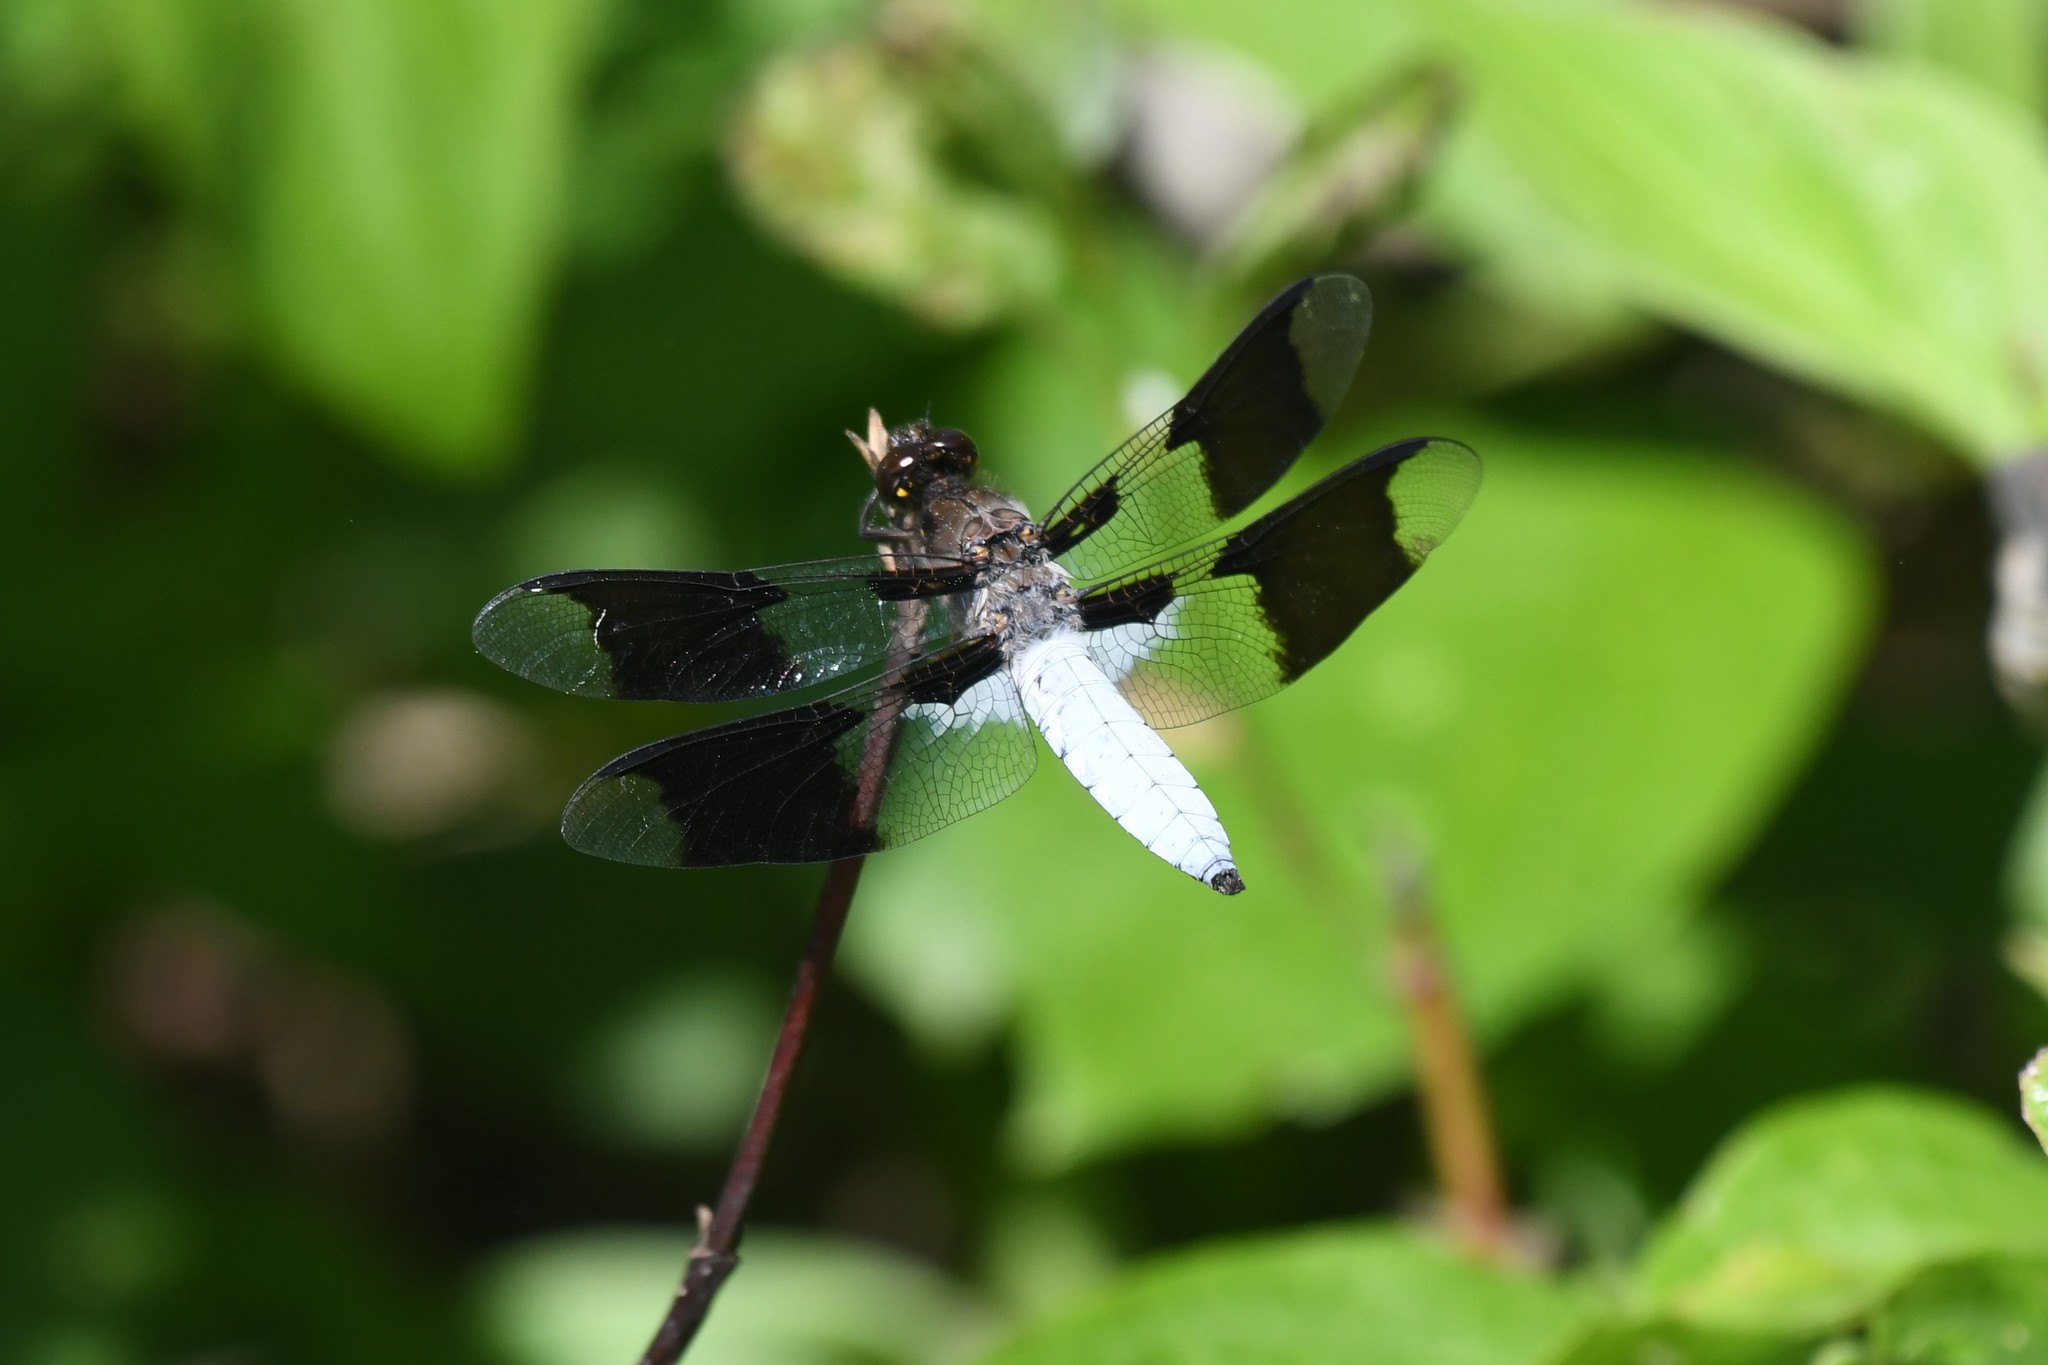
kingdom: Animalia
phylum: Arthropoda
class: Insecta
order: Odonata
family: Libellulidae
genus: Plathemis
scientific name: Plathemis lydia
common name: Common whitetail
